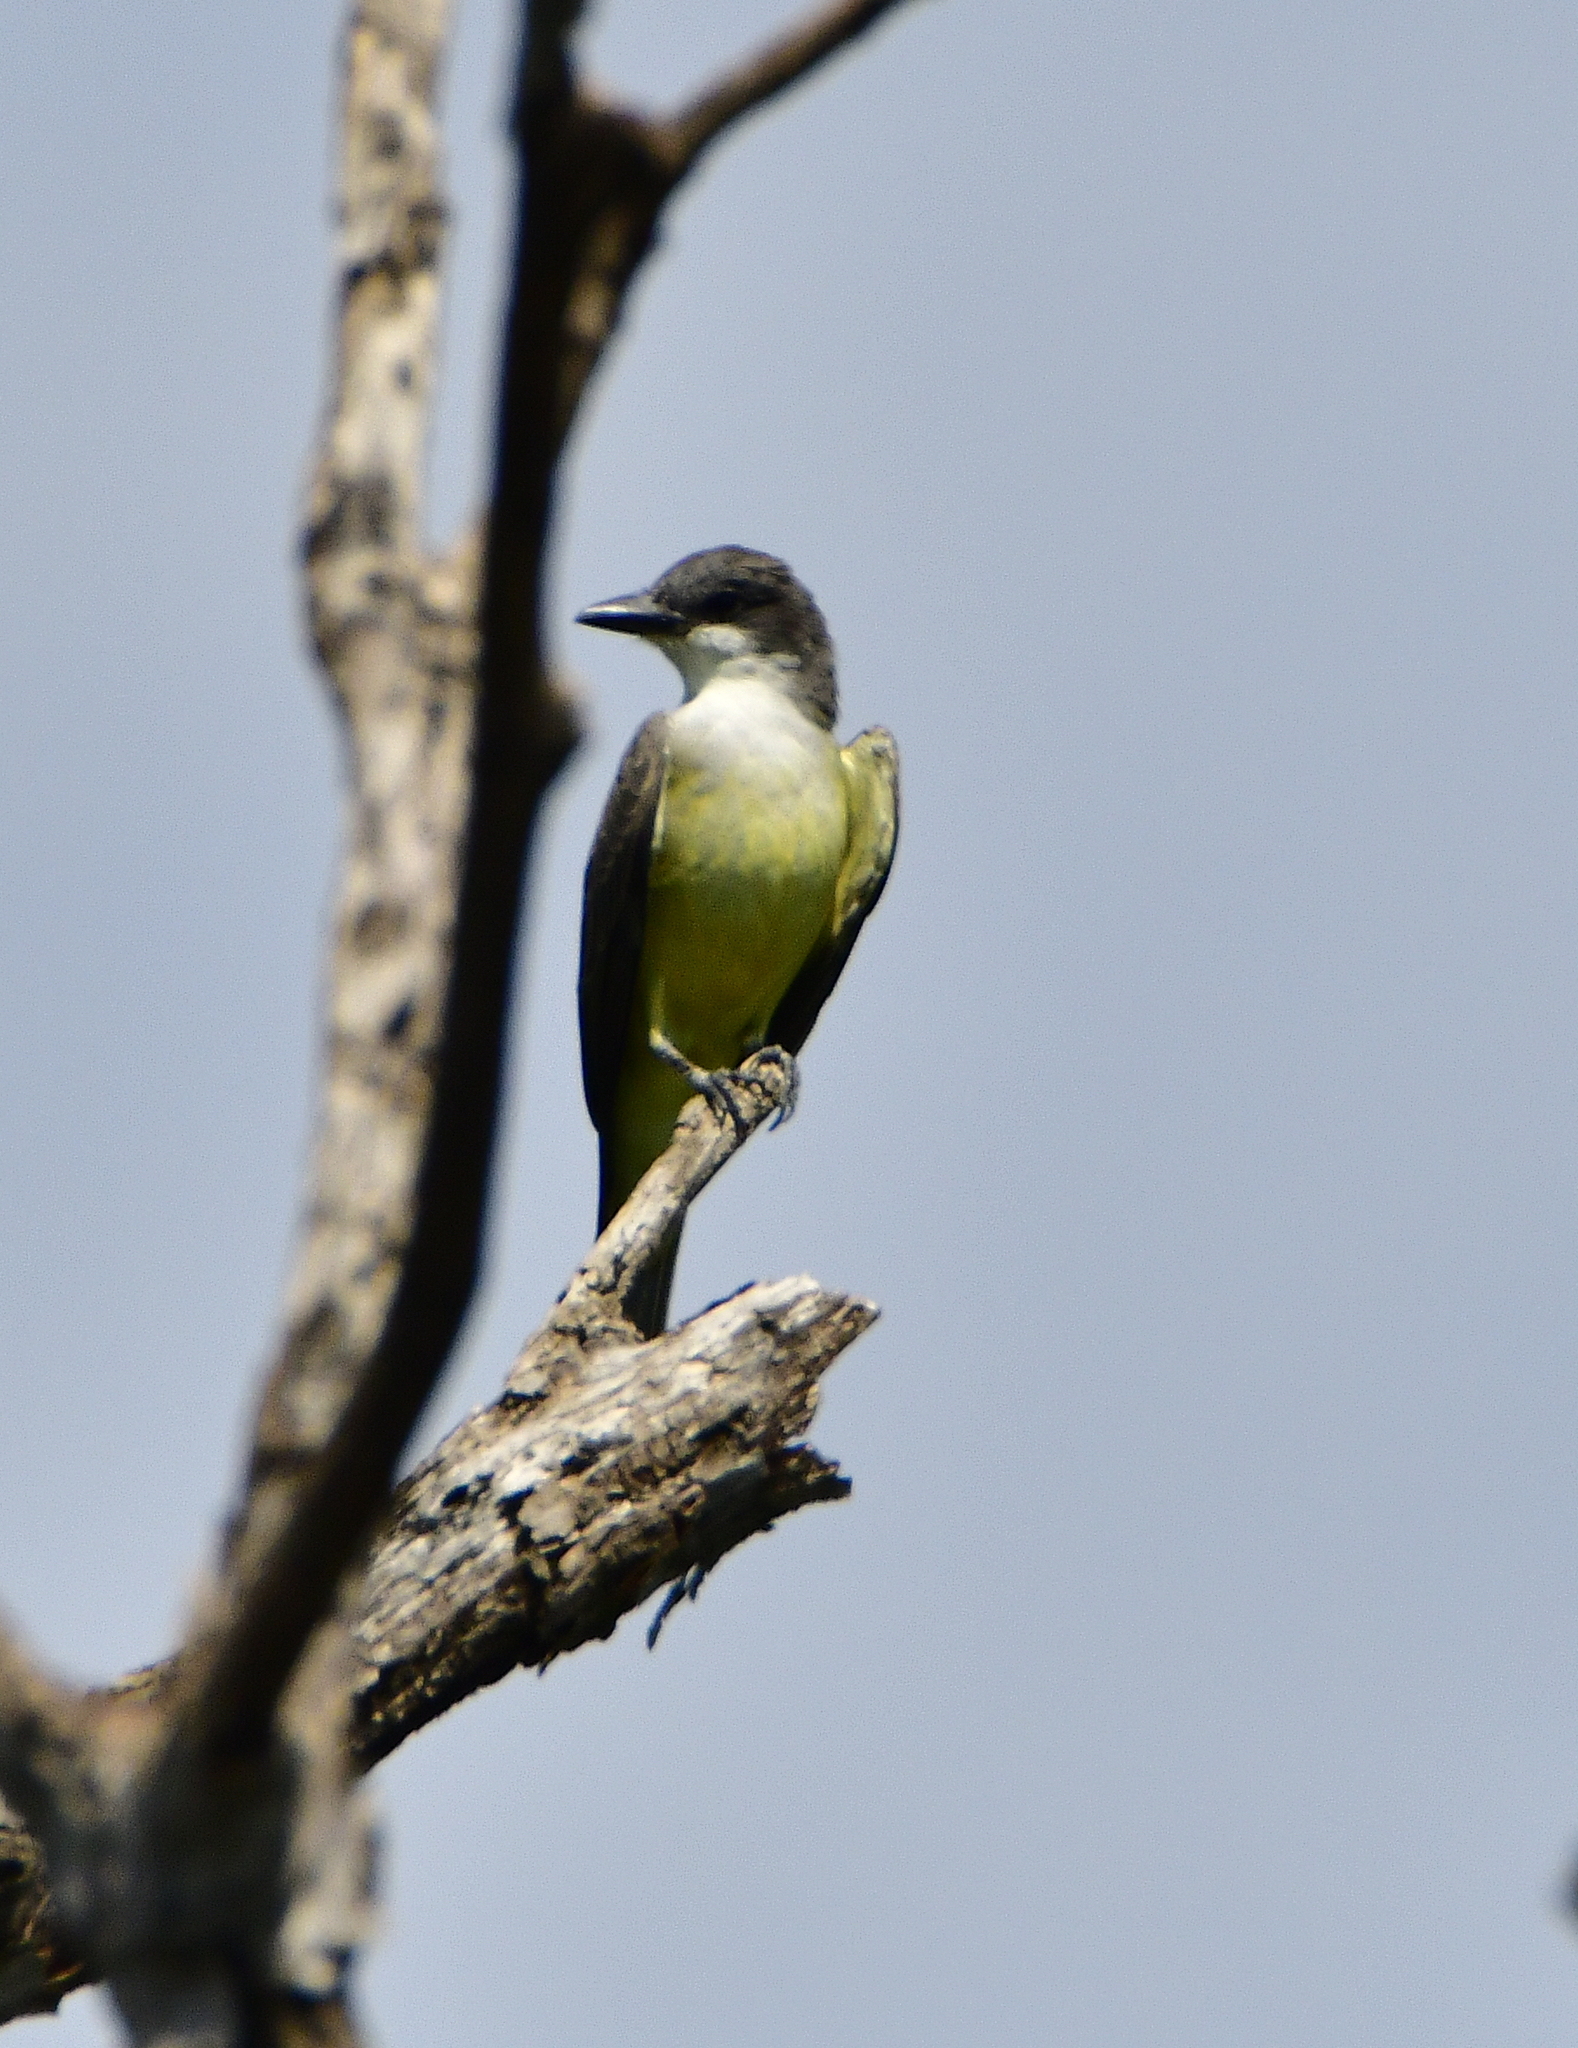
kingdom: Animalia
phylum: Chordata
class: Aves
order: Passeriformes
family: Tyrannidae
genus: Tyrannus
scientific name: Tyrannus crassirostris
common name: Thick-billed kingbird
